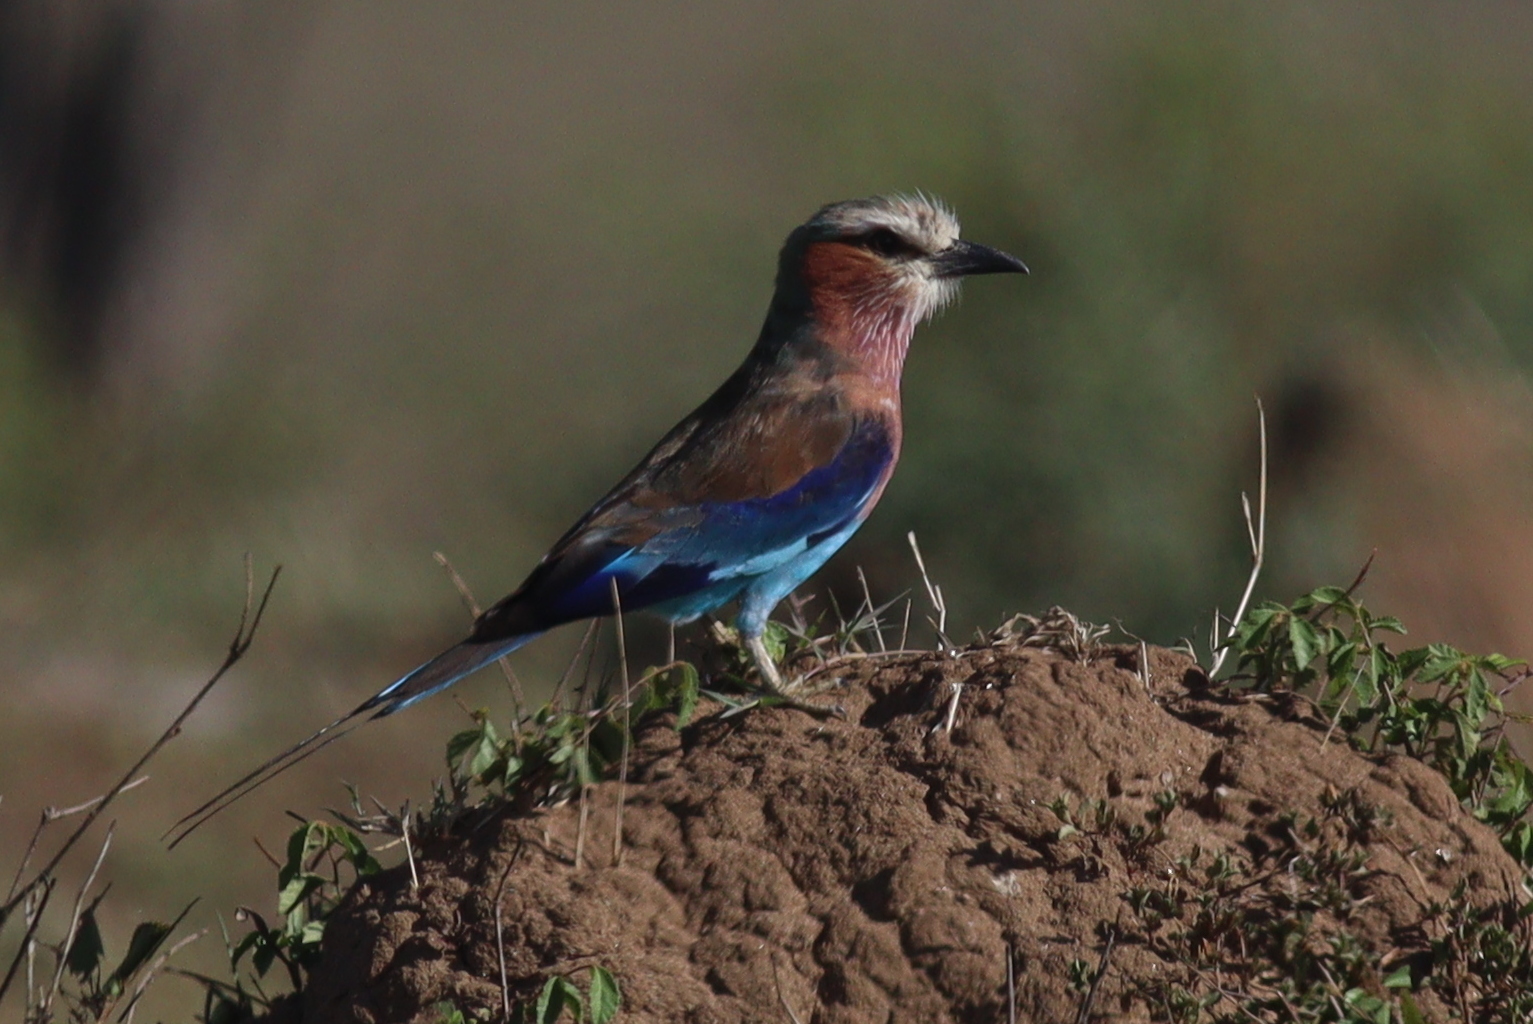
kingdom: Animalia
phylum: Chordata
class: Aves
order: Coraciiformes
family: Coraciidae
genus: Coracias
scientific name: Coracias caudatus
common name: Lilac-breasted roller
